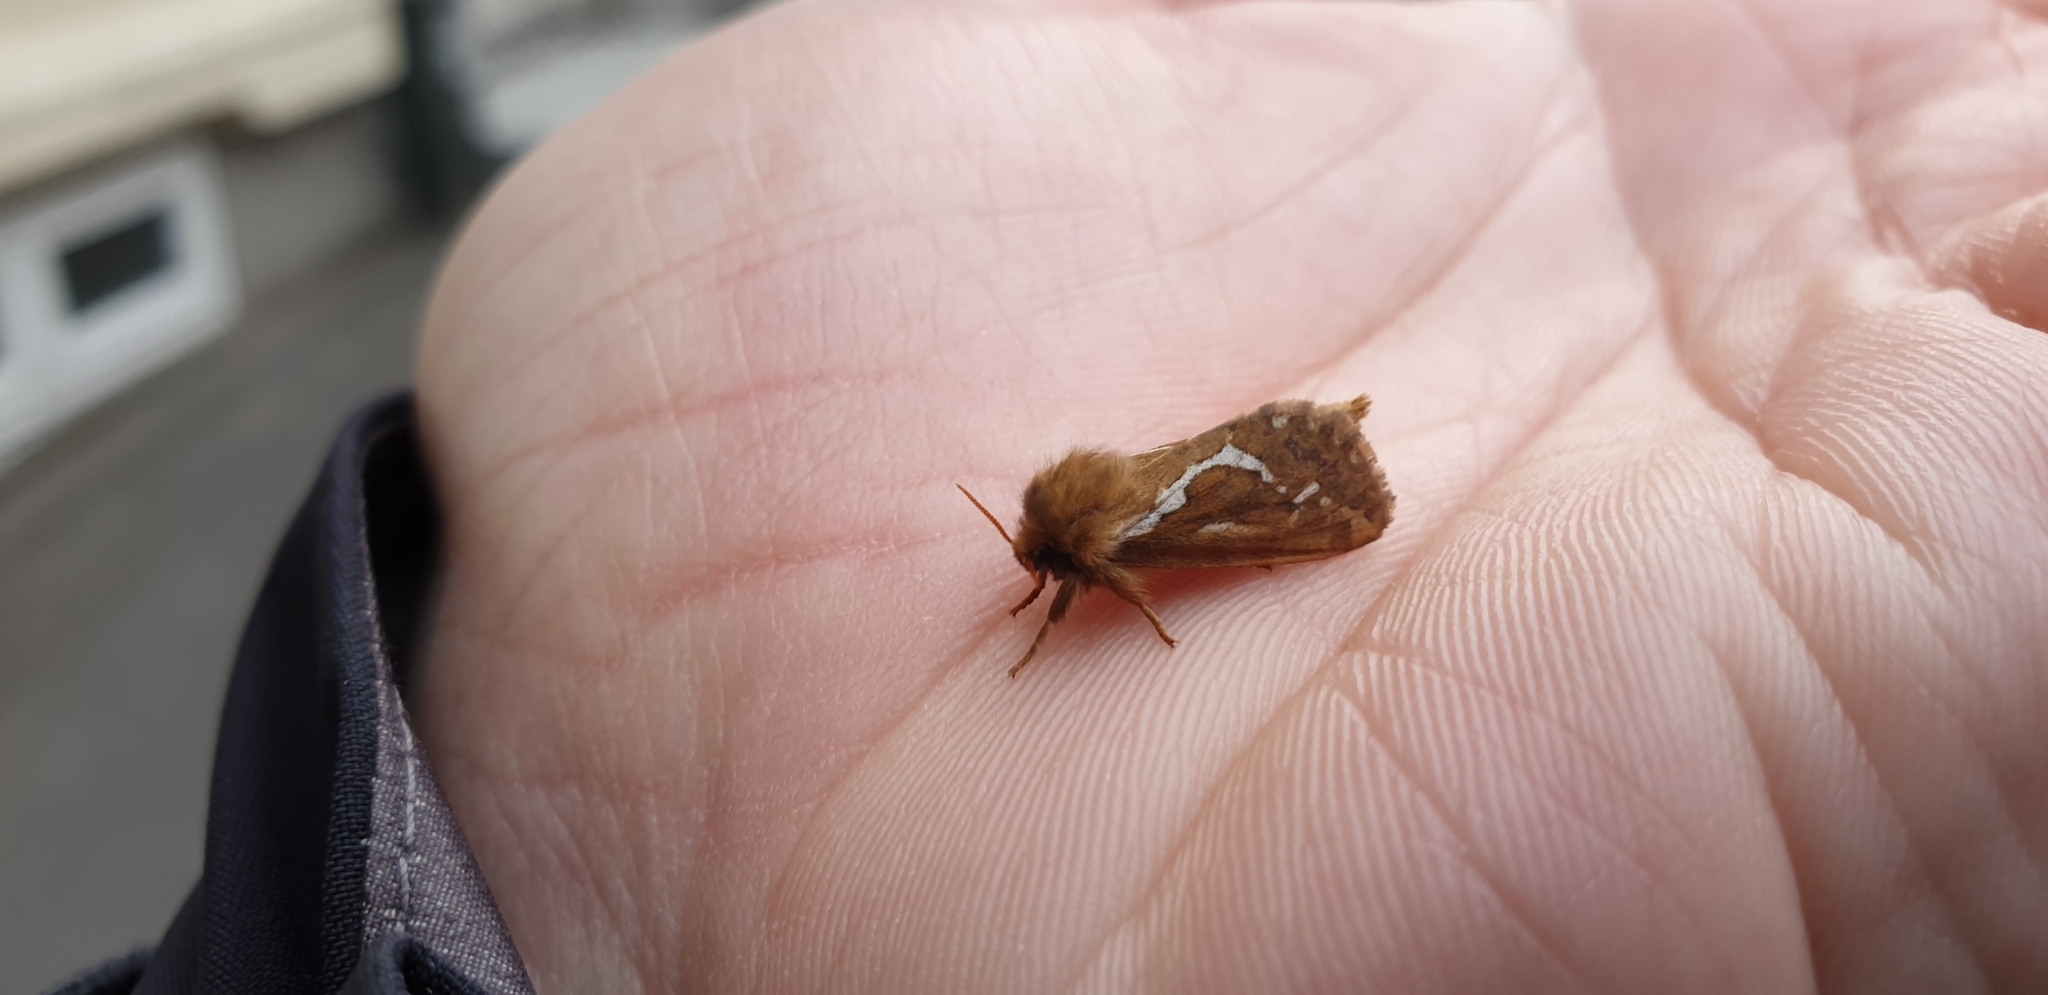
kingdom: Animalia
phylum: Arthropoda
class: Insecta
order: Lepidoptera
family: Hepialidae
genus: Korscheltellus
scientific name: Korscheltellus lupulina
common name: Common swift
